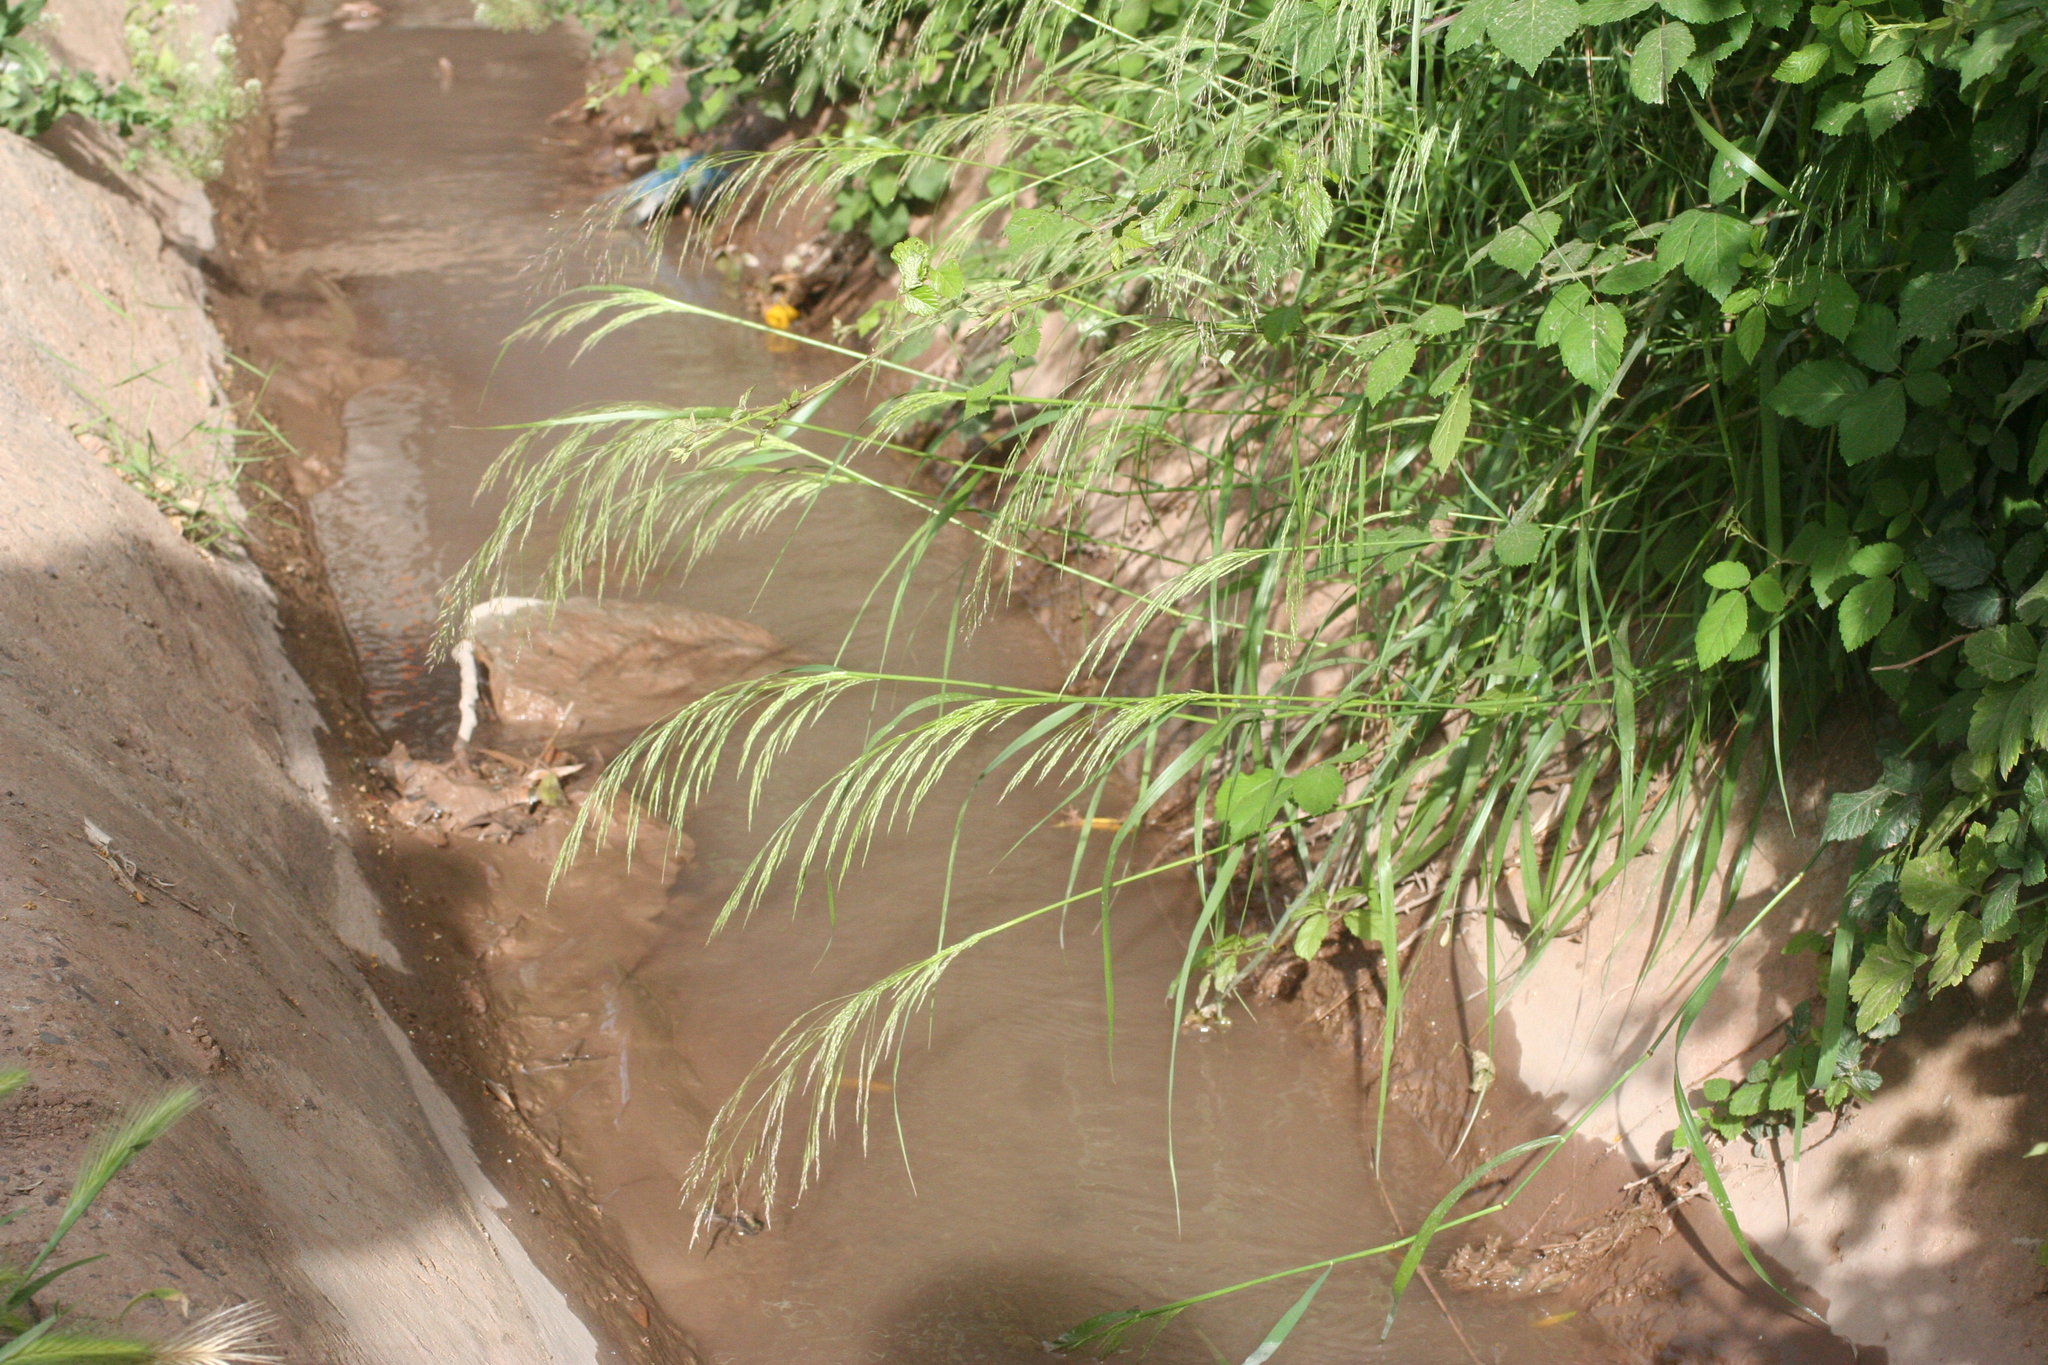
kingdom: Plantae
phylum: Tracheophyta
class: Liliopsida
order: Poales
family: Poaceae
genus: Oloptum
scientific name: Oloptum miliaceum
